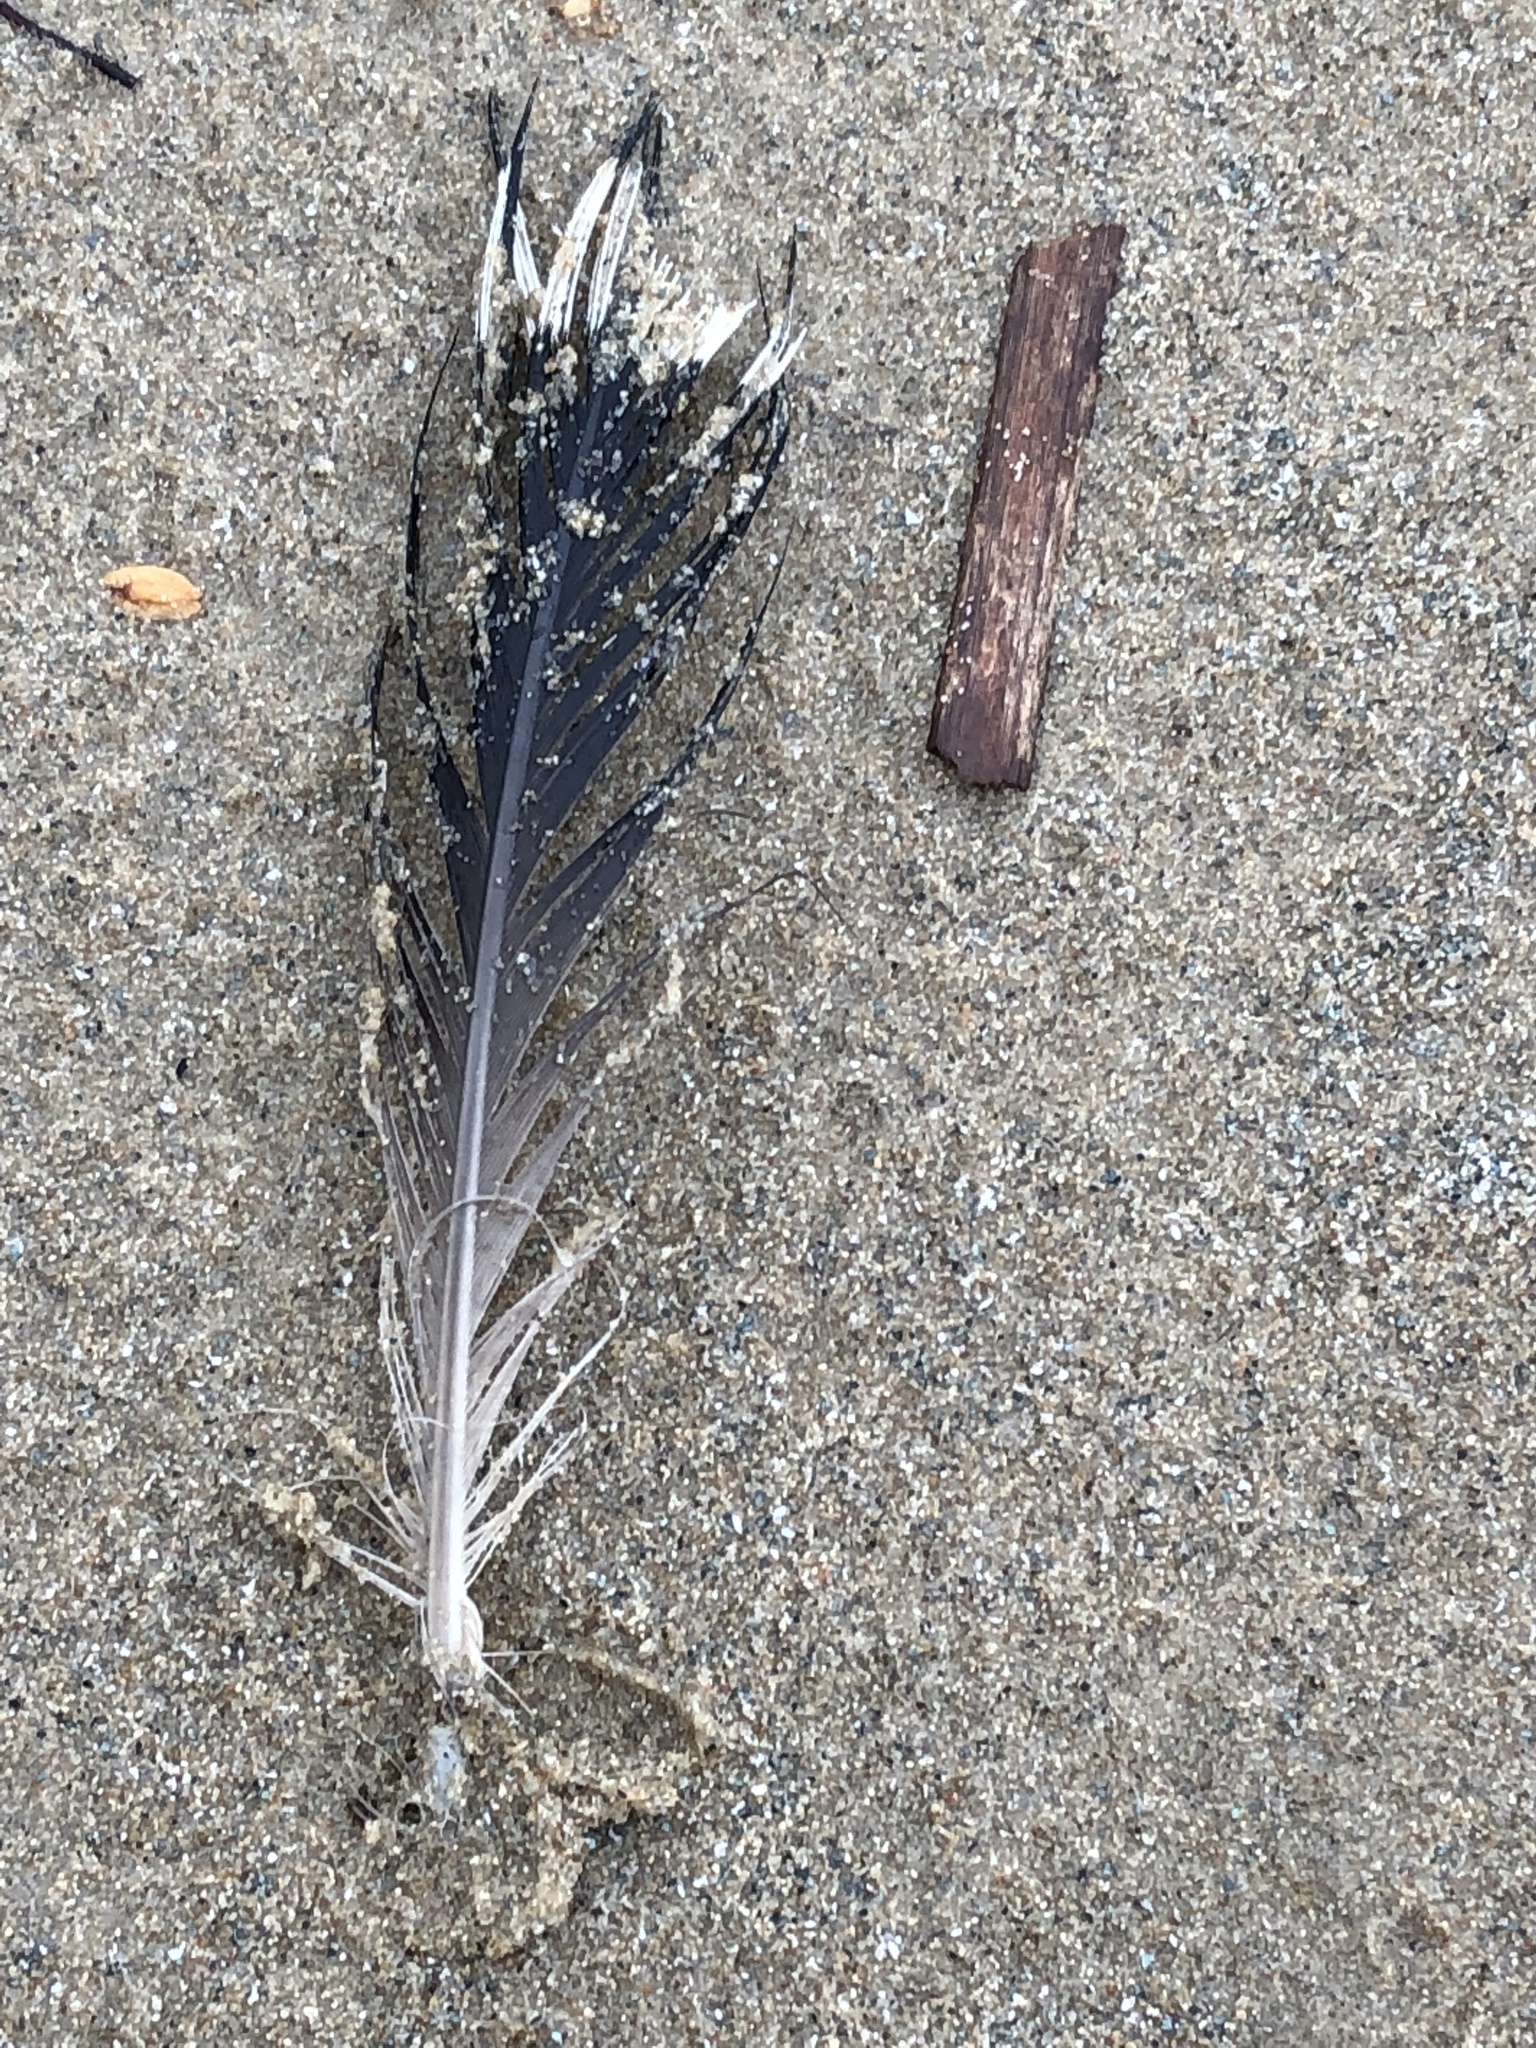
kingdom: Animalia
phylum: Chordata
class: Aves
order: Gaviiformes
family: Gaviidae
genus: Gavia
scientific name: Gavia immer
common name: Common loon
